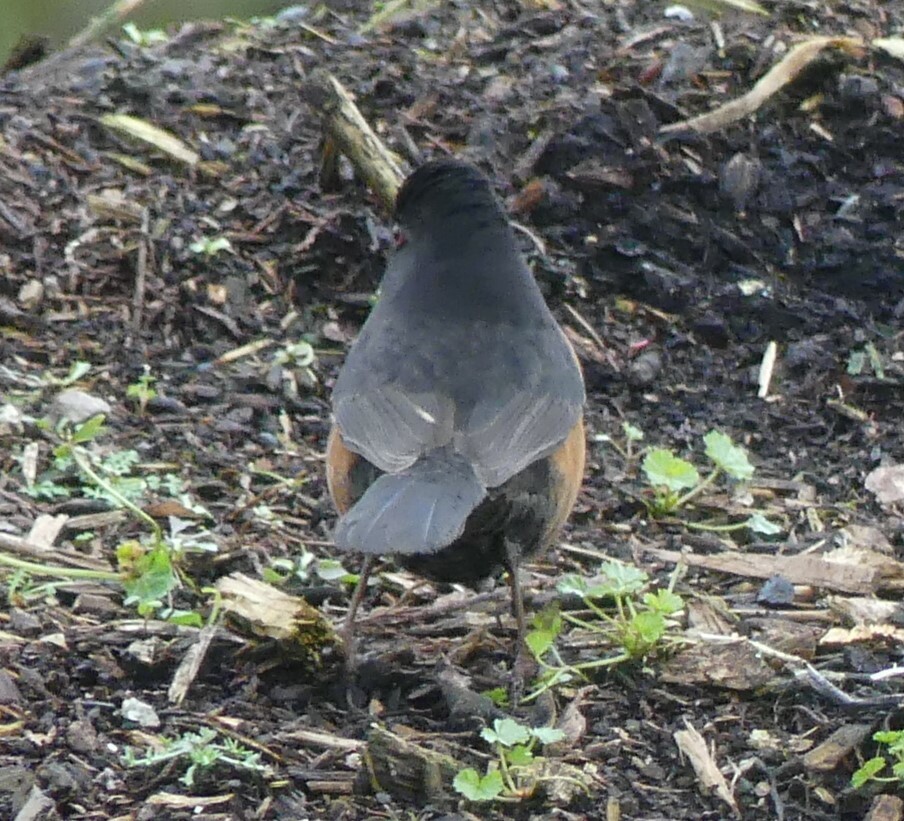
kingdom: Animalia
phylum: Chordata
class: Aves
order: Passeriformes
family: Passerellidae
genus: Pipilo
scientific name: Pipilo maculatus
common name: Spotted towhee
